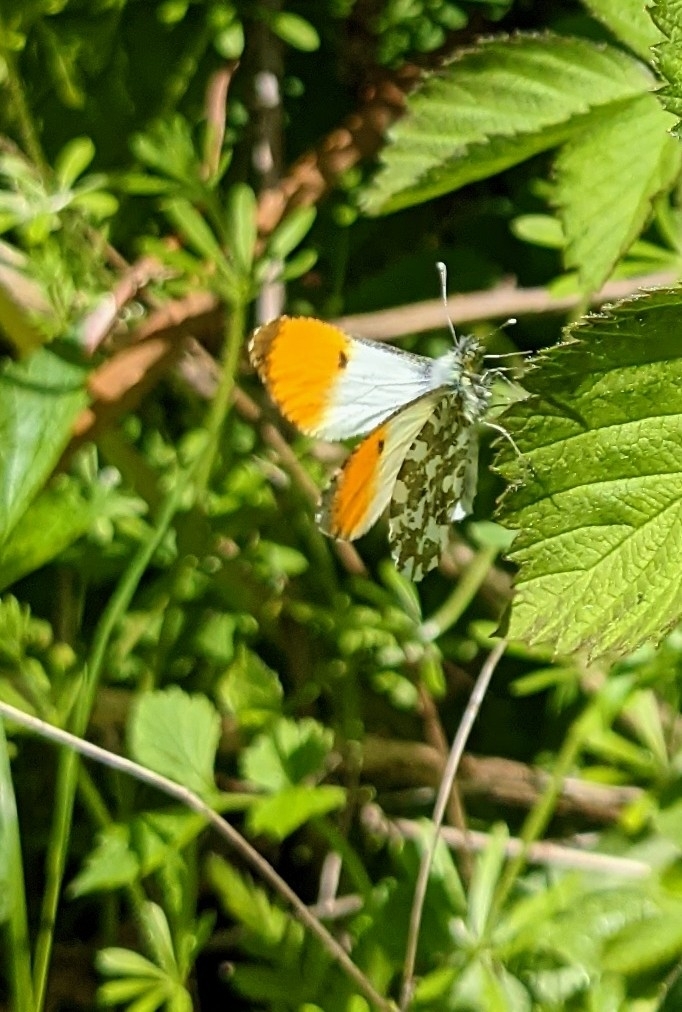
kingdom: Animalia
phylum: Arthropoda
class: Insecta
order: Lepidoptera
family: Pieridae
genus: Anthocharis
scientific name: Anthocharis cardamines
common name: Orange-tip
